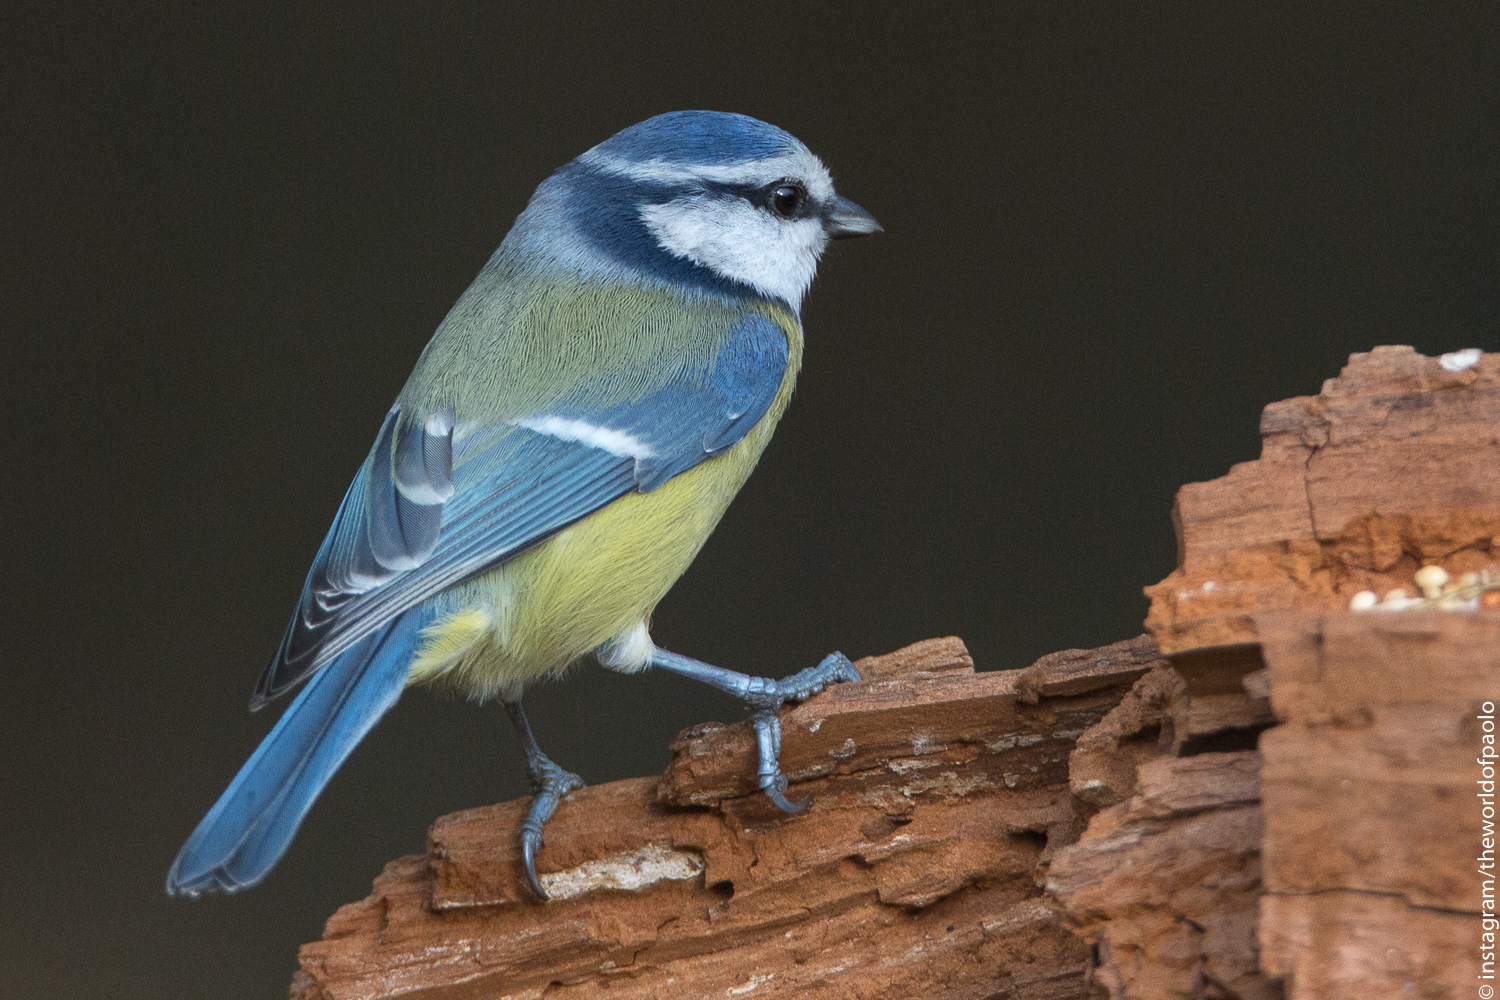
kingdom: Animalia
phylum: Chordata
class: Aves
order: Passeriformes
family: Paridae
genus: Cyanistes
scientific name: Cyanistes caeruleus
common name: Eurasian blue tit
